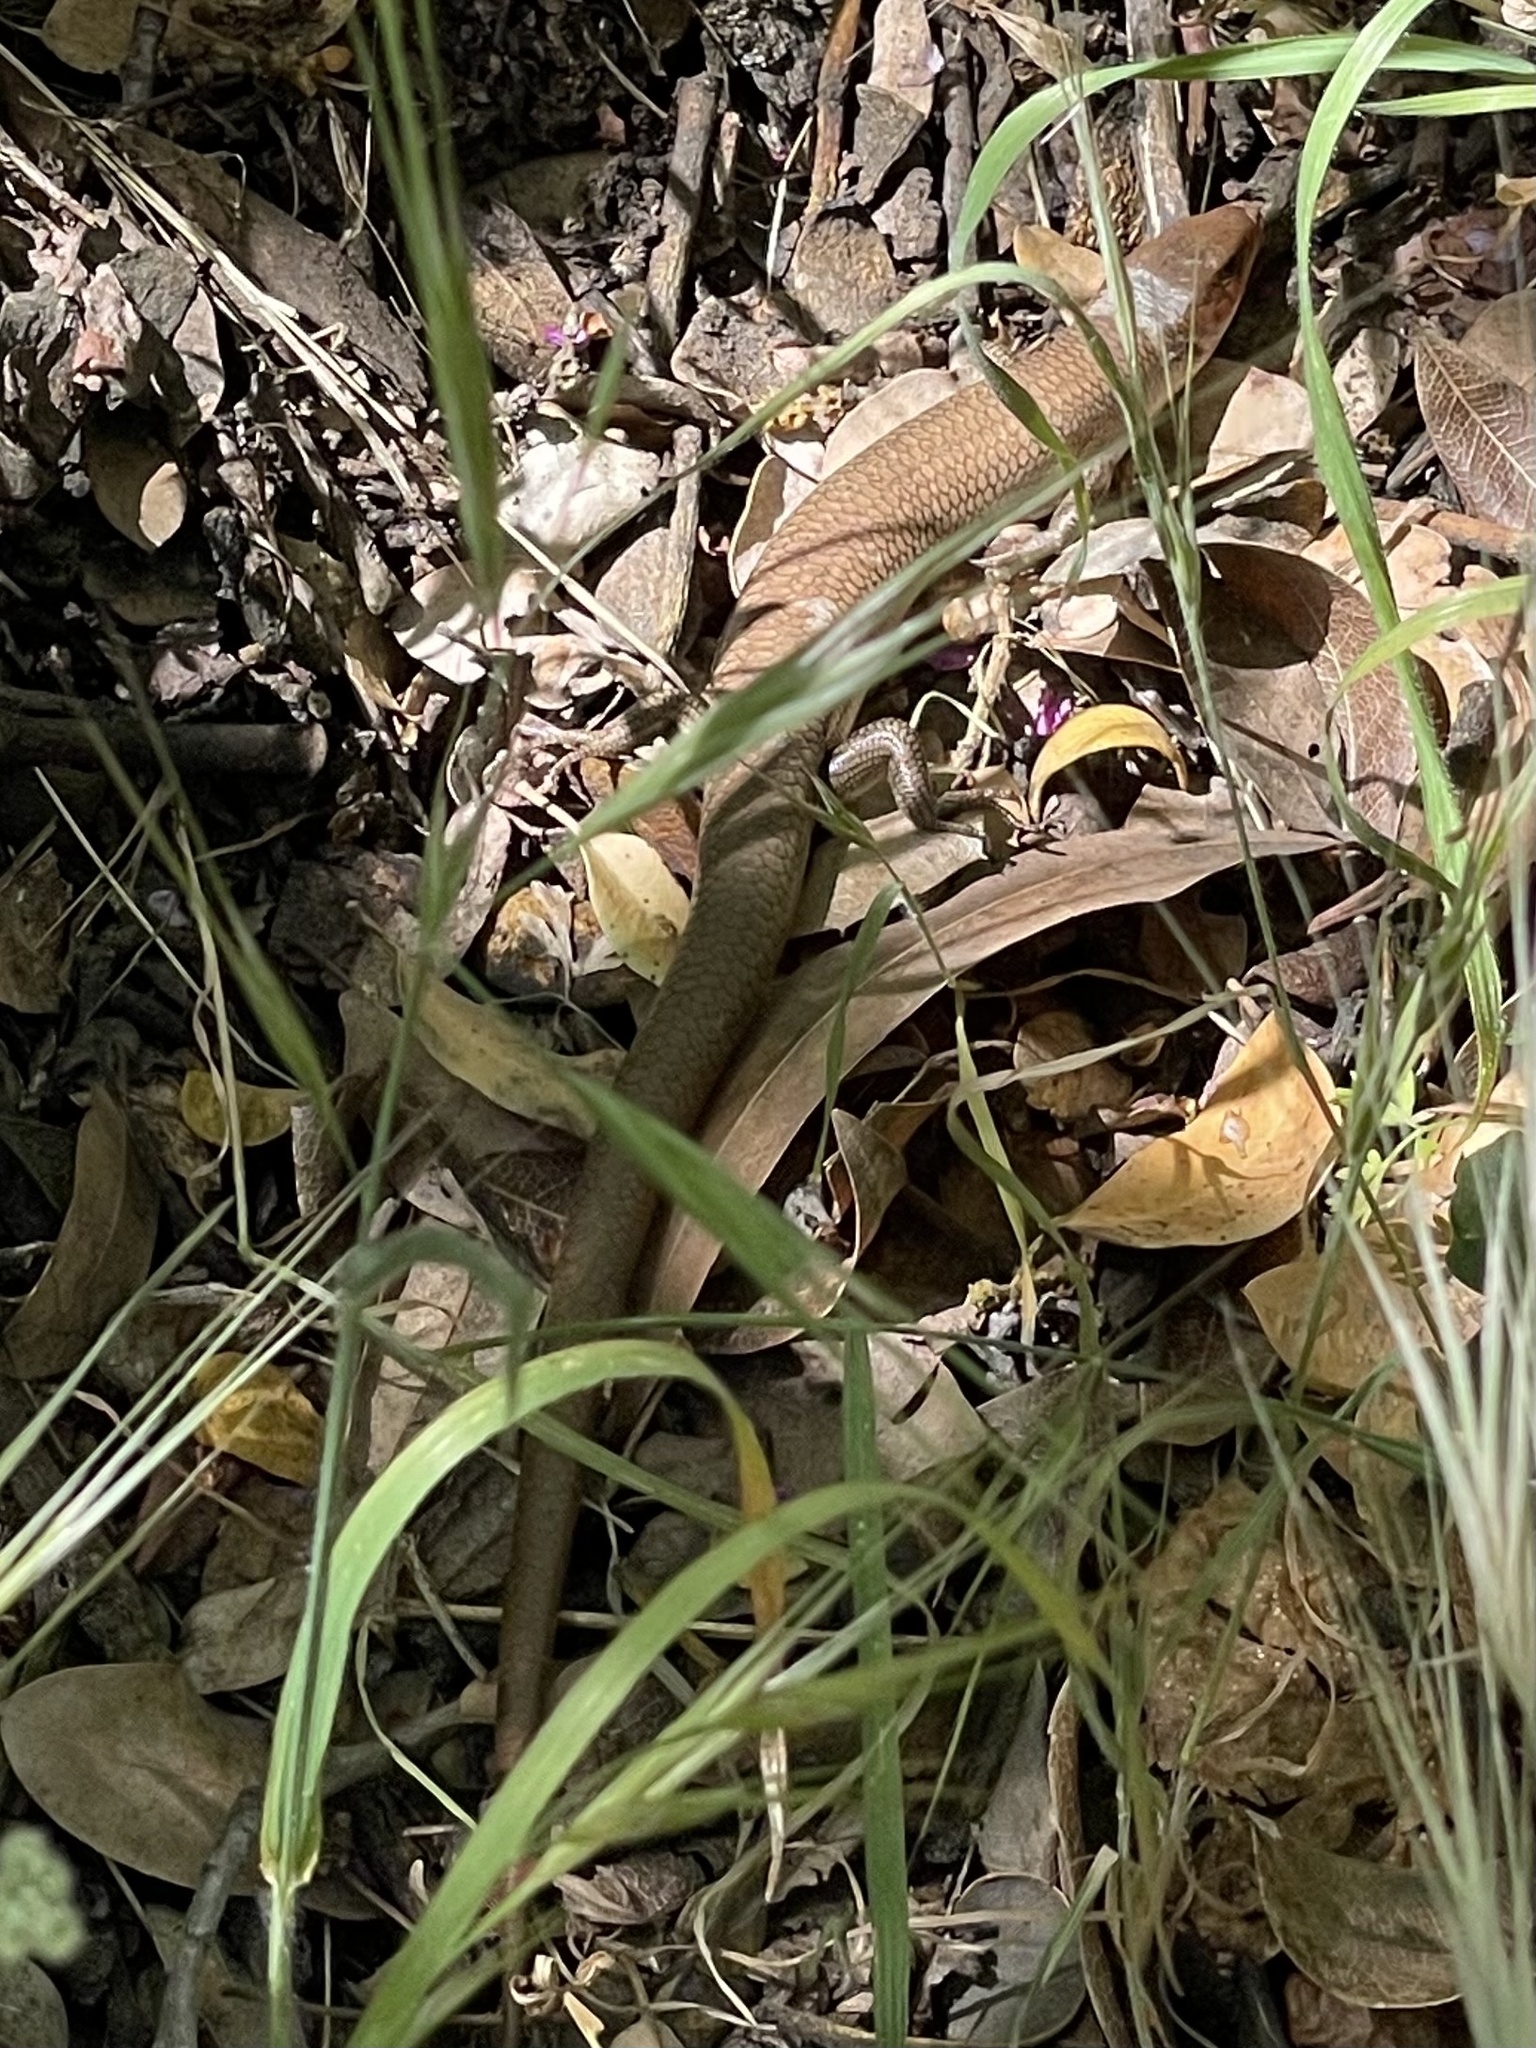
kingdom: Animalia
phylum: Chordata
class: Squamata
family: Scincidae
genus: Plestiodon
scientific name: Plestiodon gilberti
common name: Gilbert's skink
